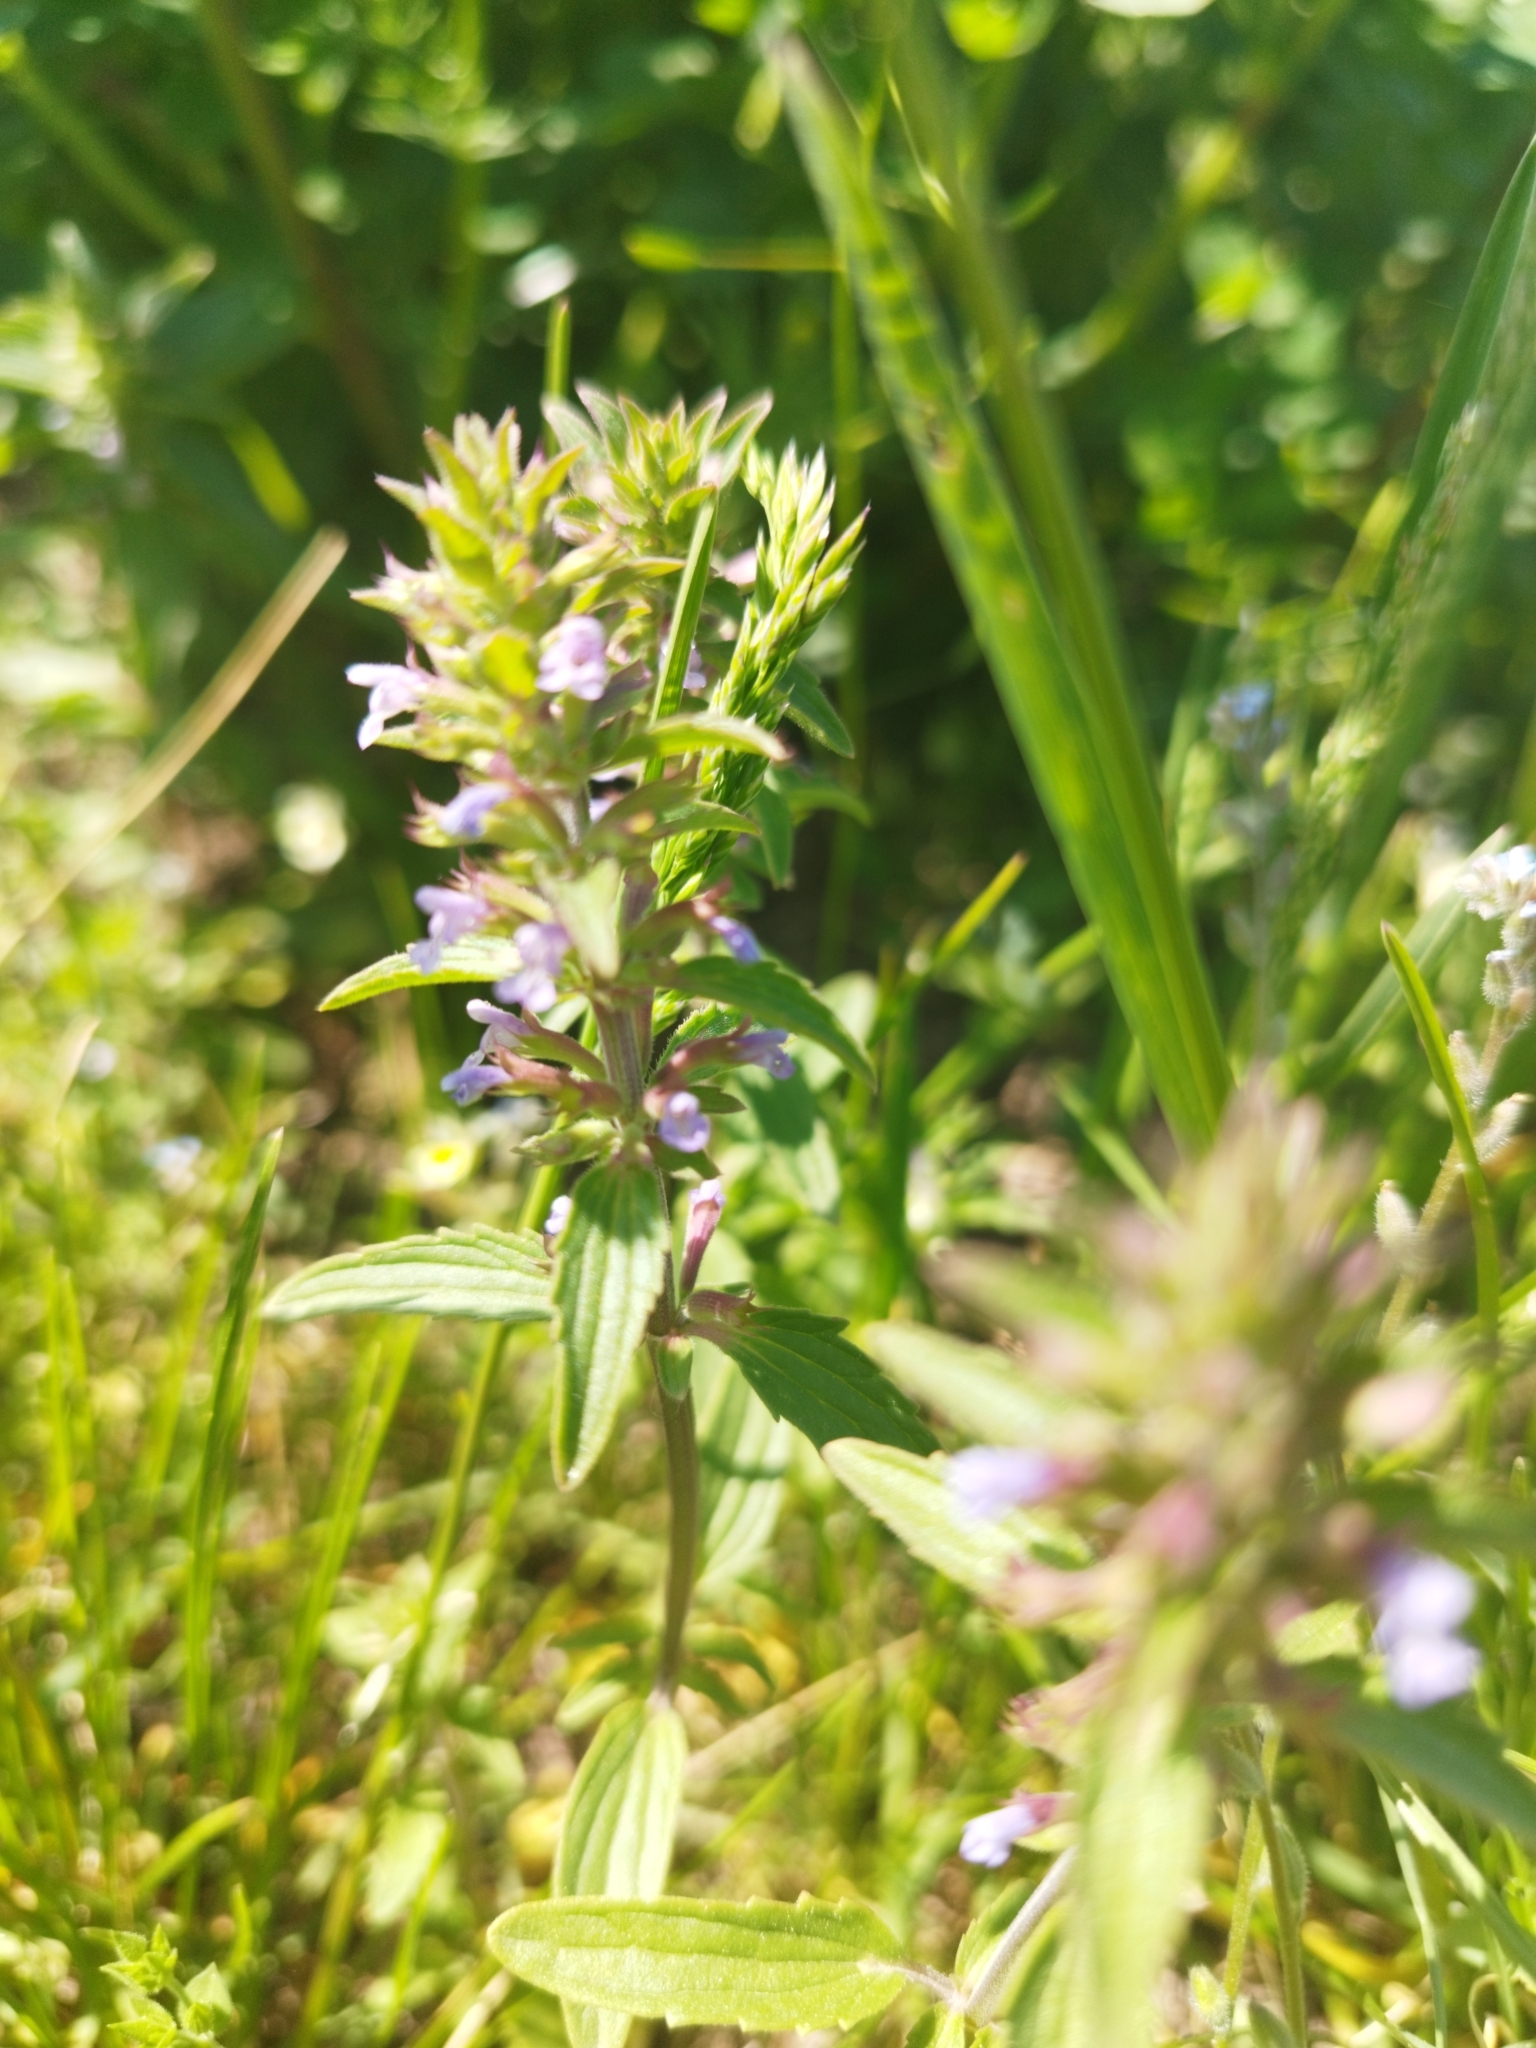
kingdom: Plantae
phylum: Tracheophyta
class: Magnoliopsida
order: Lamiales
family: Lamiaceae
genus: Dracocephalum
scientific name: Dracocephalum thymiflorum
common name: Thymeleaf dragonhead
